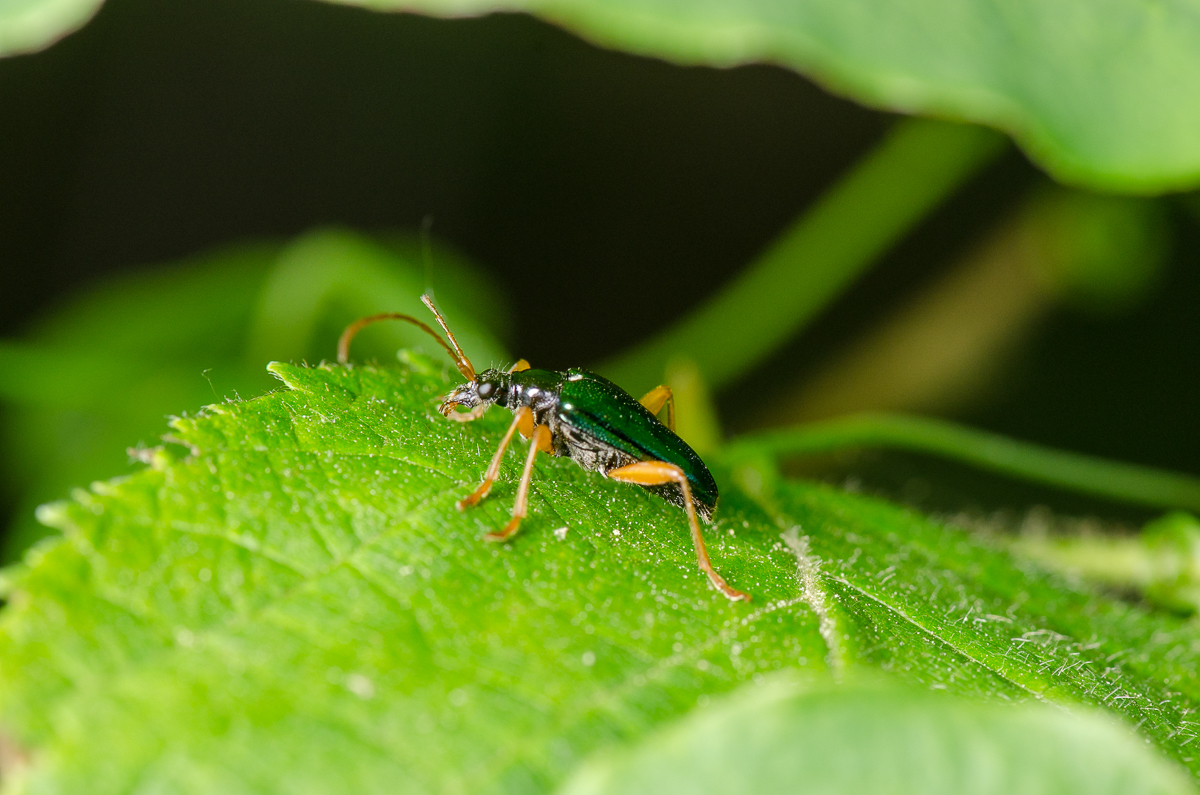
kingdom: Animalia
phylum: Arthropoda
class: Insecta
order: Coleoptera
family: Cerambycidae
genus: Gaurotes
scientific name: Gaurotes cyanipennis
